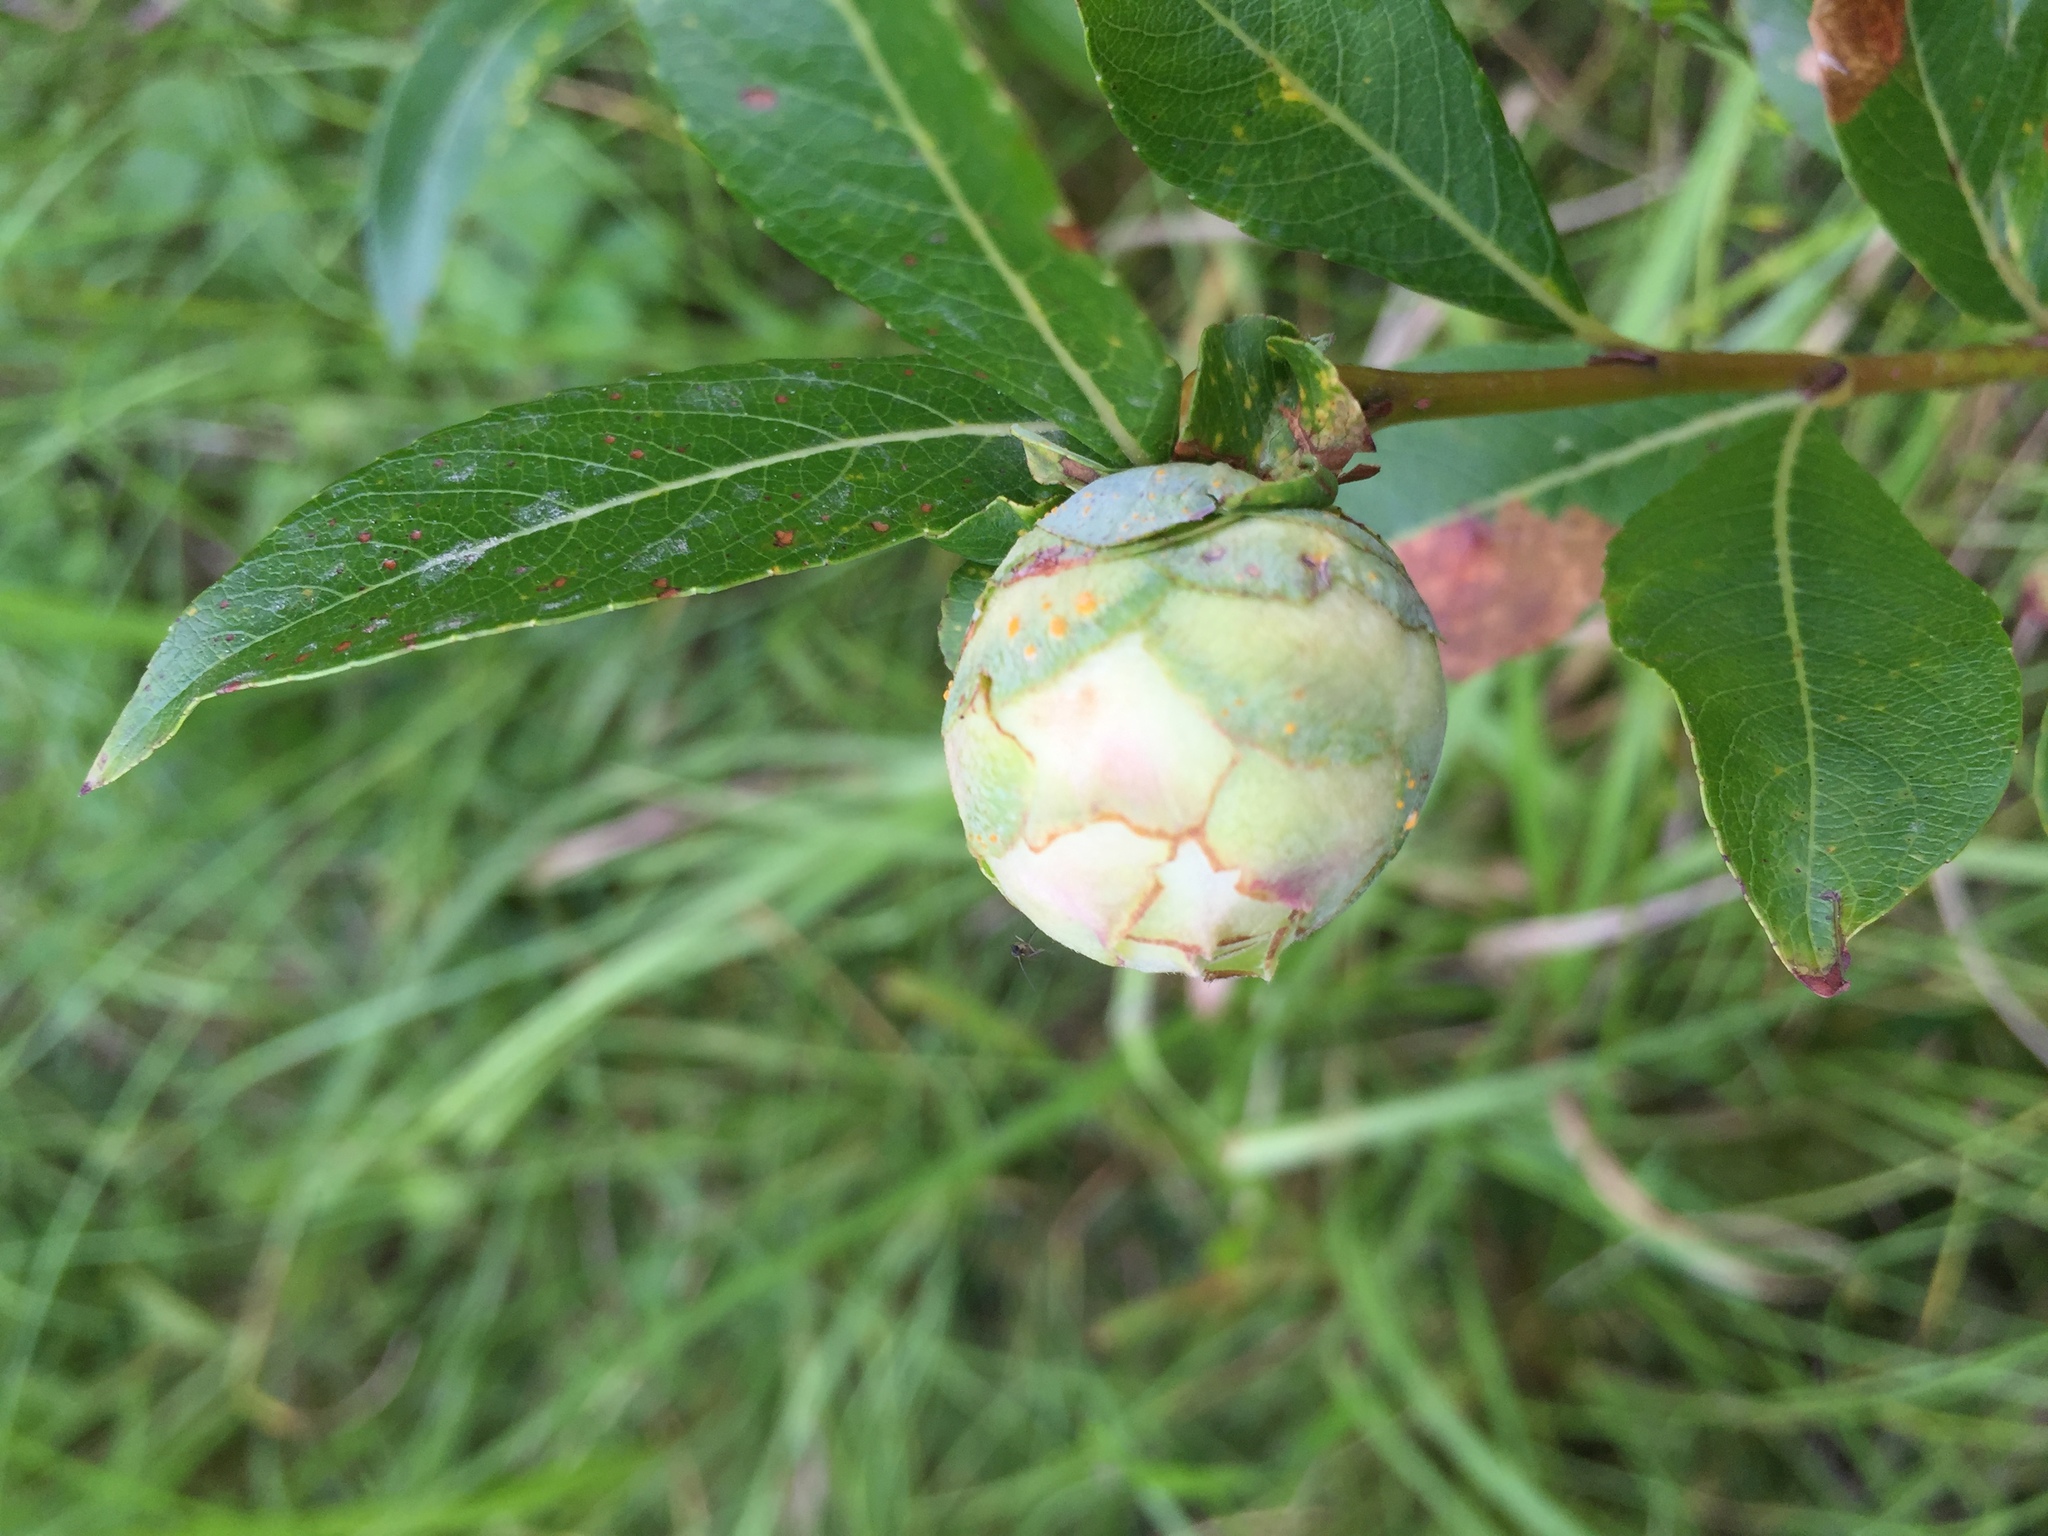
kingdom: Animalia
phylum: Arthropoda
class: Insecta
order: Diptera
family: Cecidomyiidae
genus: Rabdophaga
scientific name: Rabdophaga strobiloides
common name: Willow pinecone gall midge
